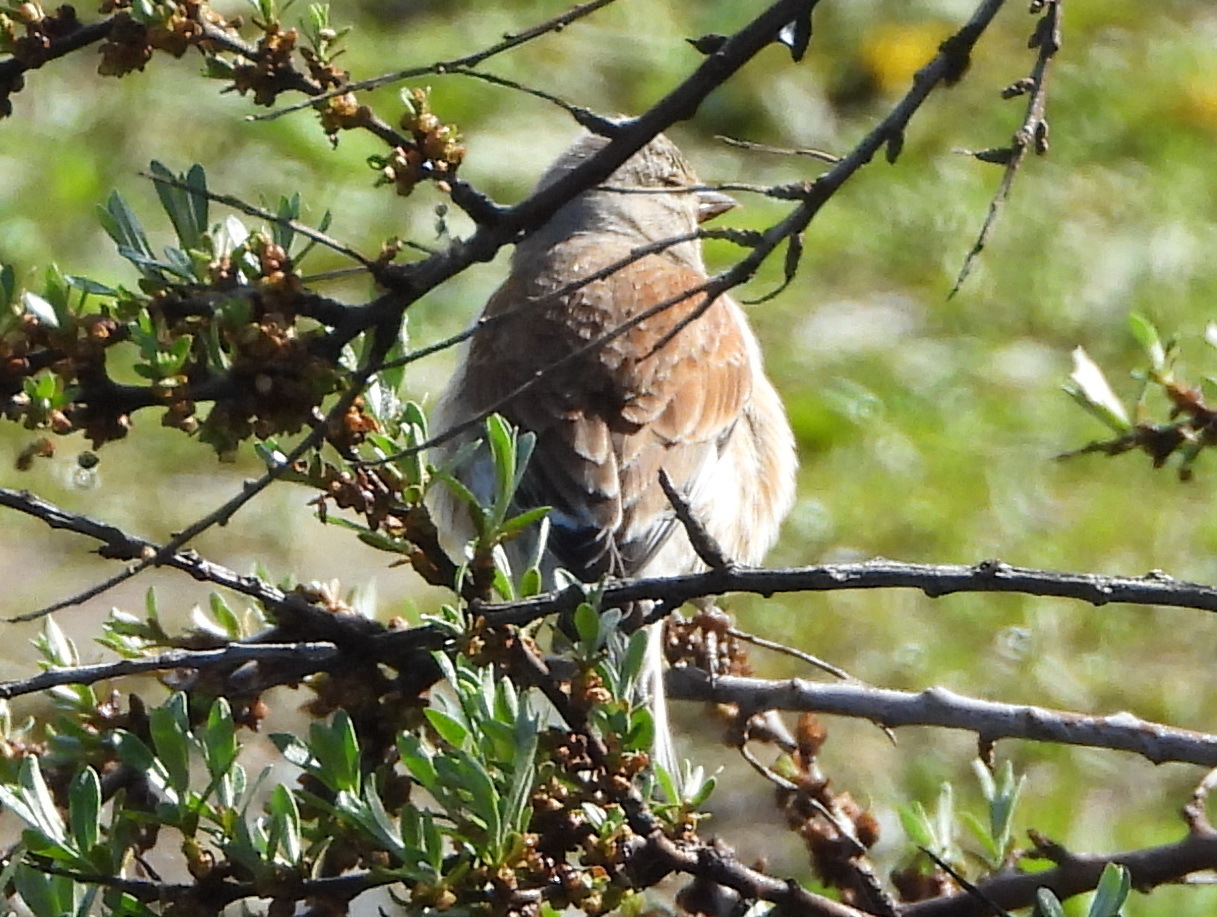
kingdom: Animalia
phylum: Chordata
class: Aves
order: Passeriformes
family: Fringillidae
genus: Linaria
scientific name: Linaria cannabina
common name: Common linnet
